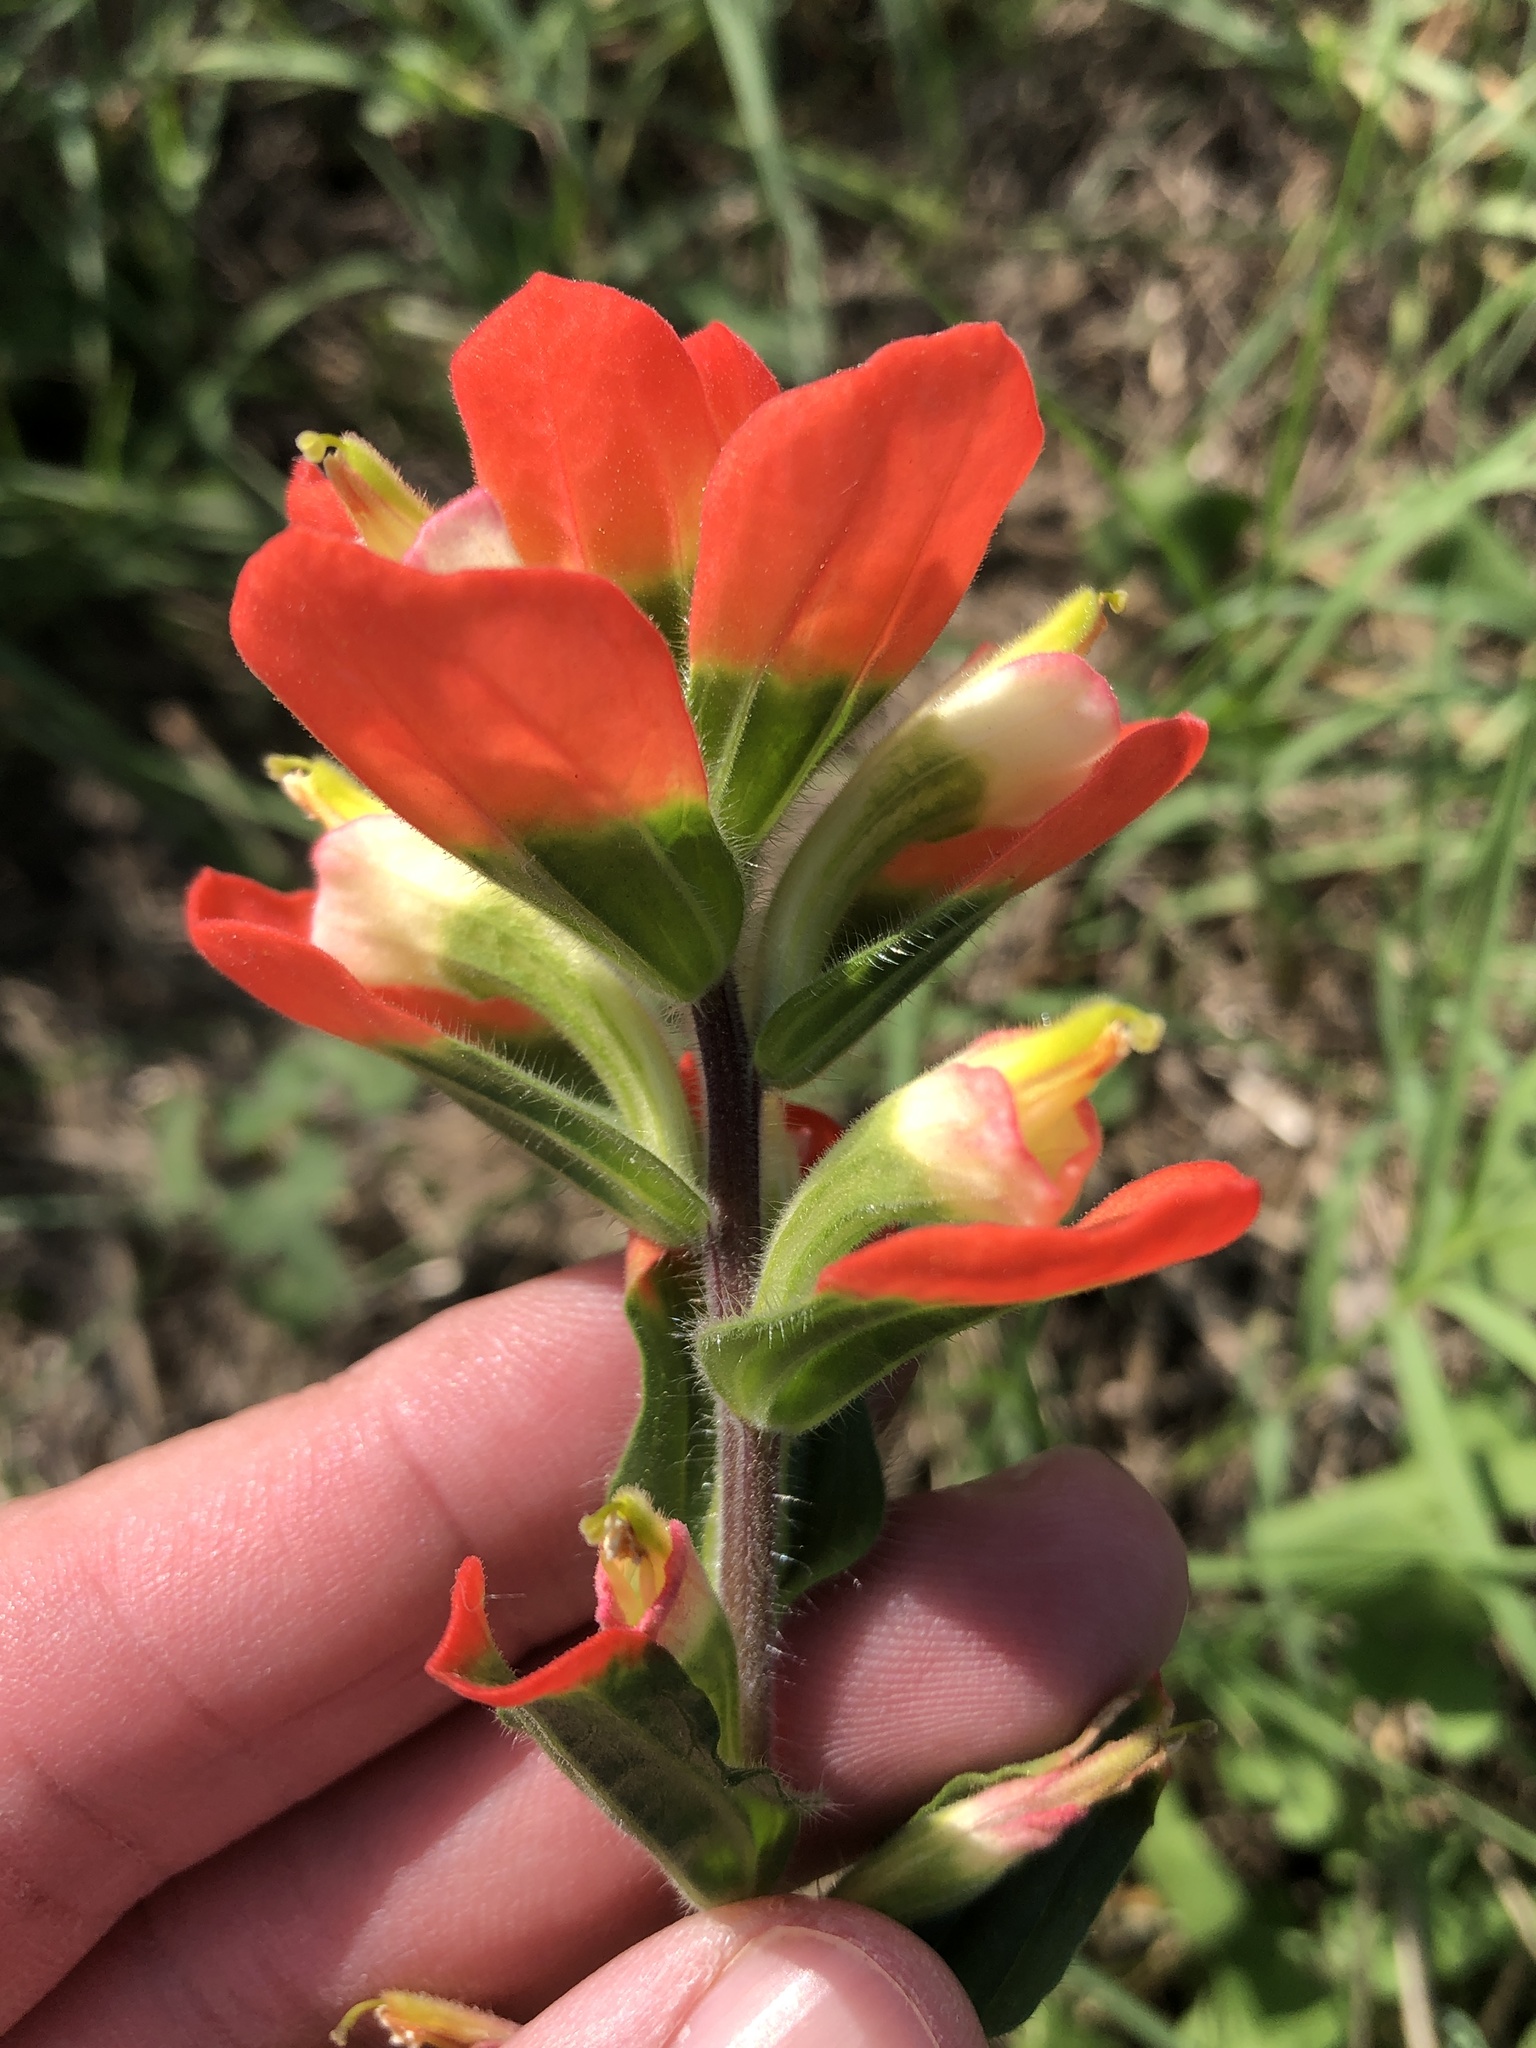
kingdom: Plantae
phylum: Tracheophyta
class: Magnoliopsida
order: Lamiales
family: Orobanchaceae
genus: Castilleja
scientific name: Castilleja indivisa
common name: Texas paintbrush
